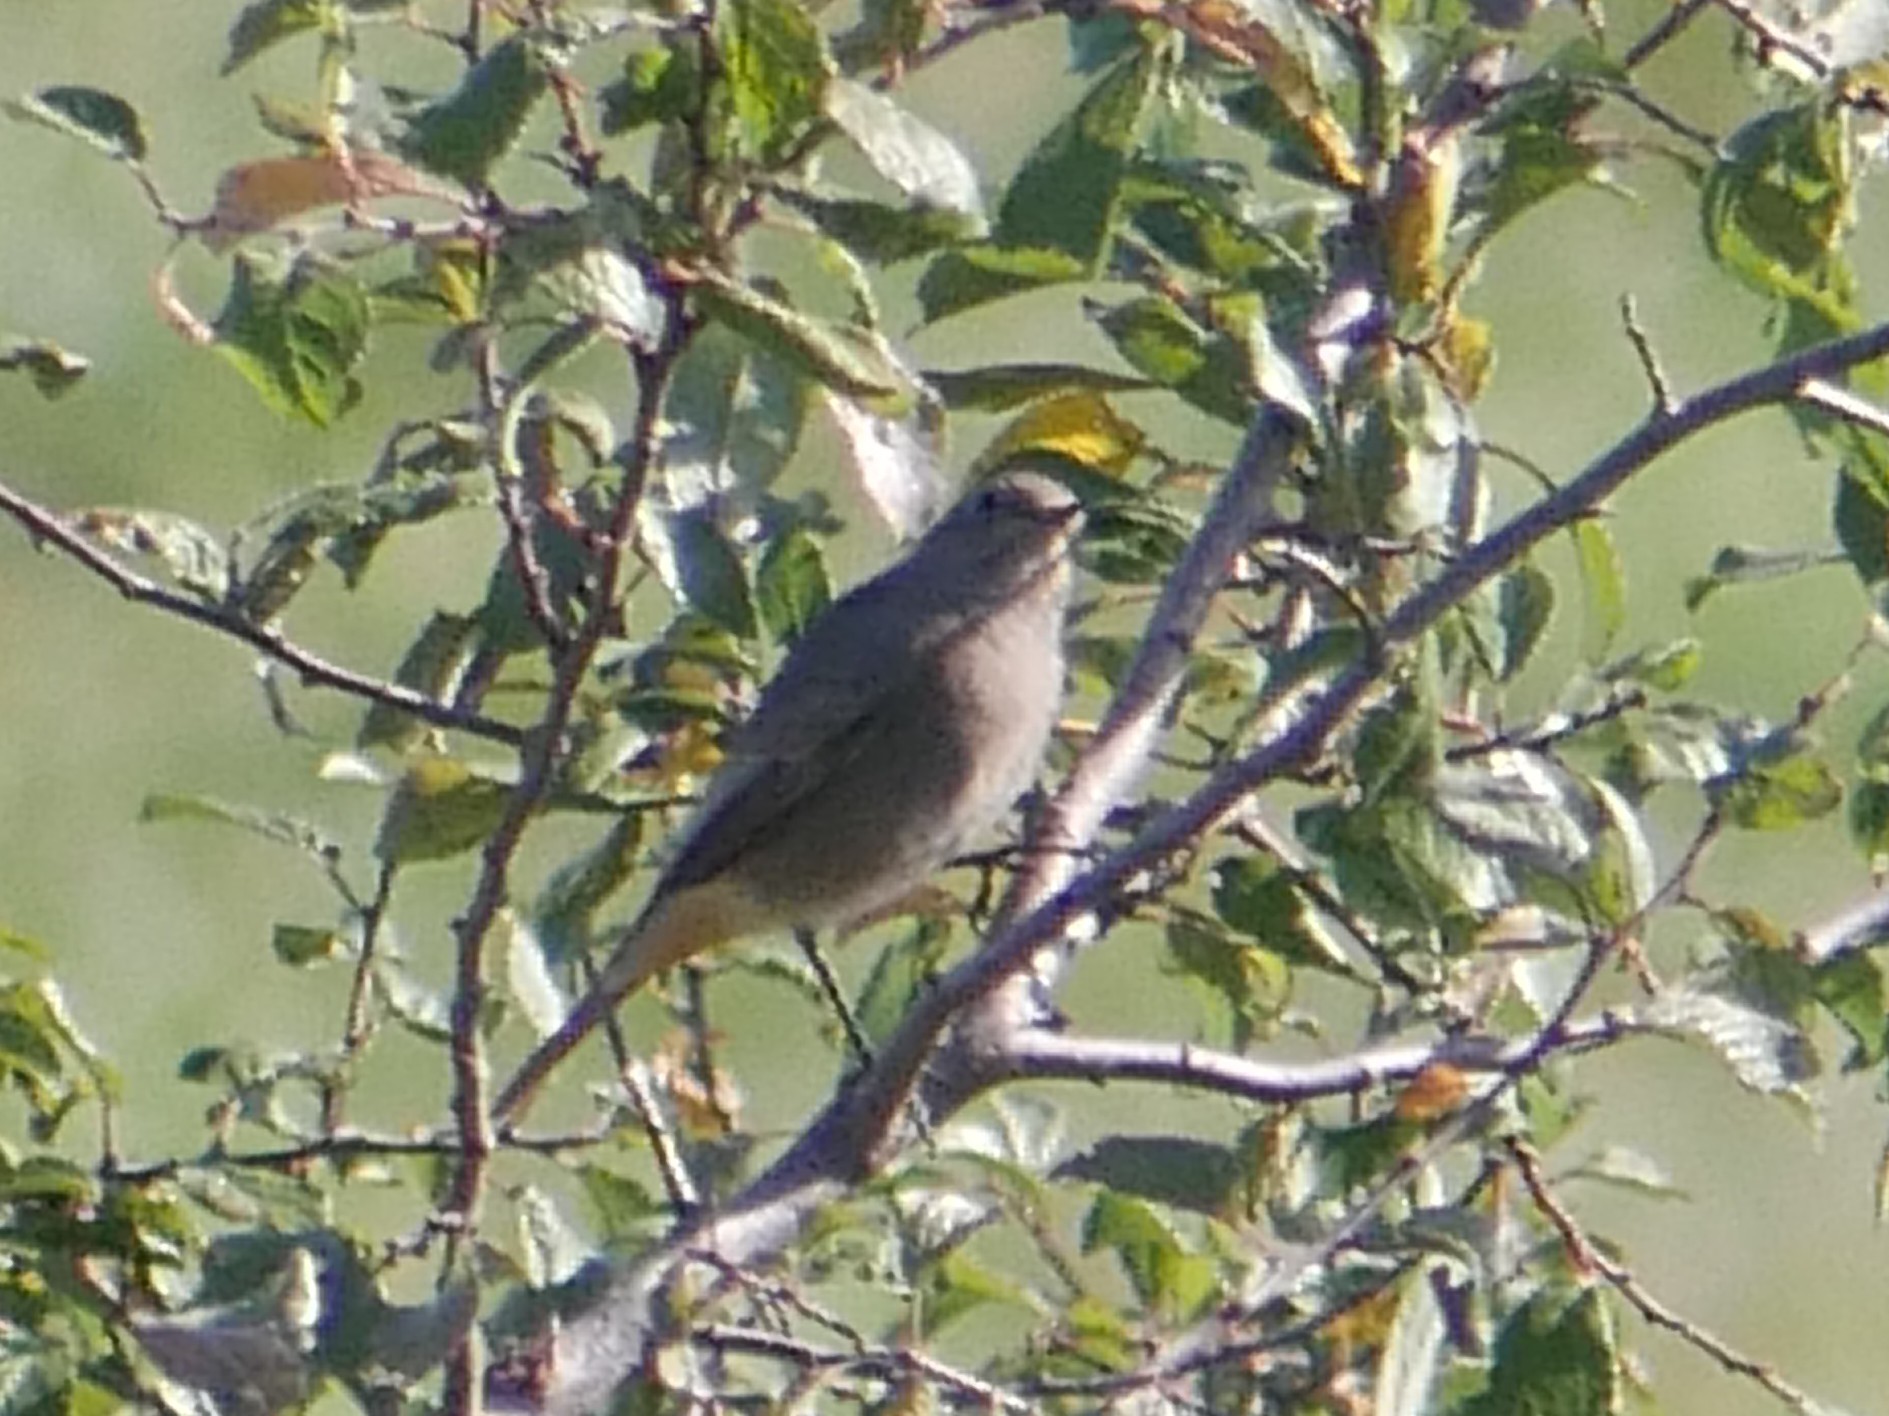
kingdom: Animalia
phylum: Chordata
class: Aves
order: Passeriformes
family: Muscicapidae
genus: Phoenicurus
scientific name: Phoenicurus ochruros
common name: Black redstart
